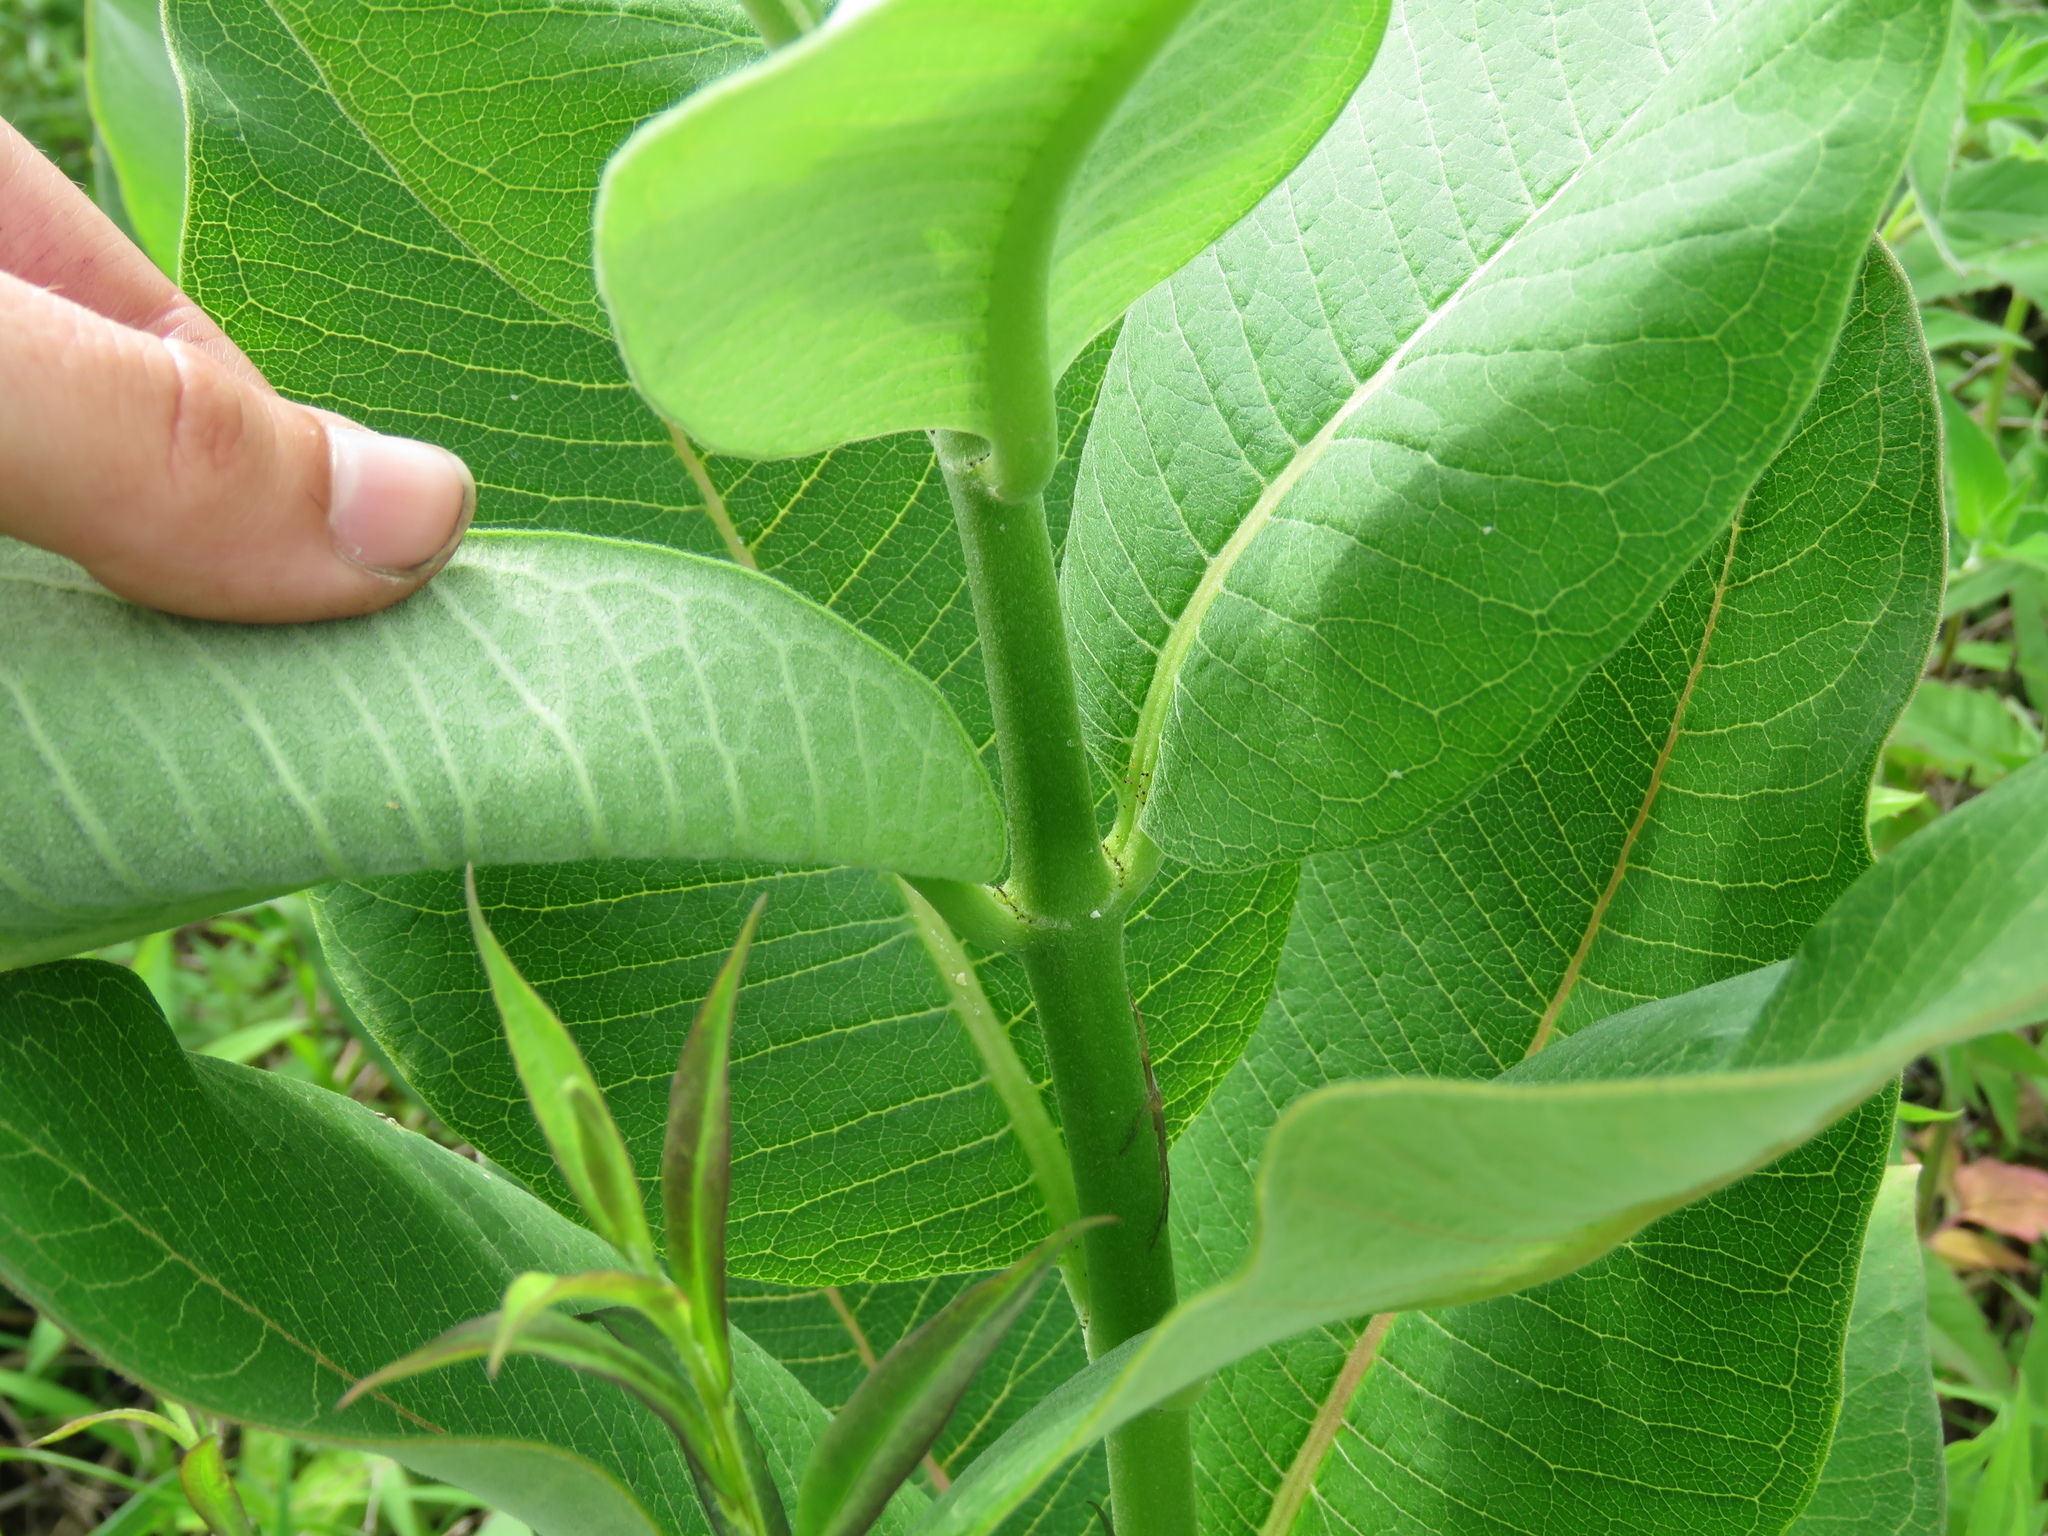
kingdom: Plantae
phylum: Tracheophyta
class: Magnoliopsida
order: Gentianales
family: Apocynaceae
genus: Asclepias
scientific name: Asclepias syriaca
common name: Common milkweed
